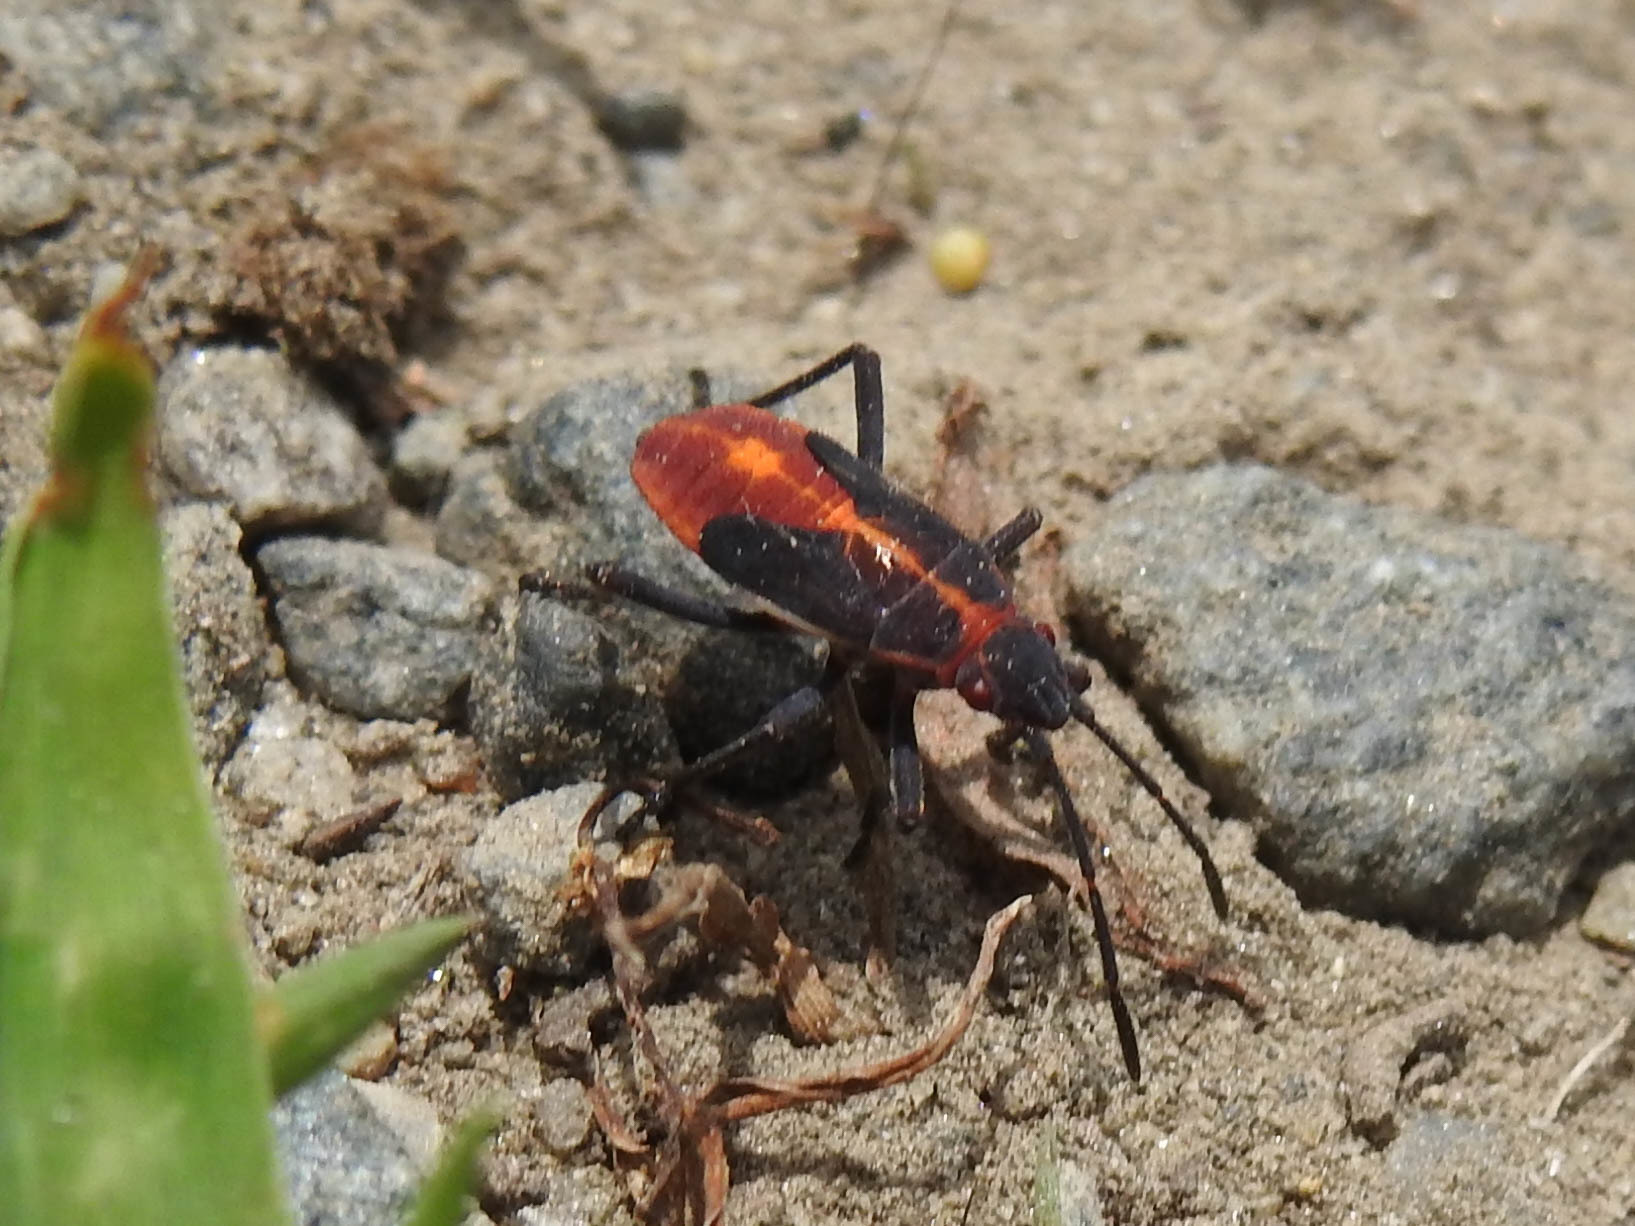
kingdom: Animalia
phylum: Arthropoda
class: Insecta
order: Hemiptera
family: Rhopalidae
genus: Boisea
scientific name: Boisea trivittata
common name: Boxelder bug
